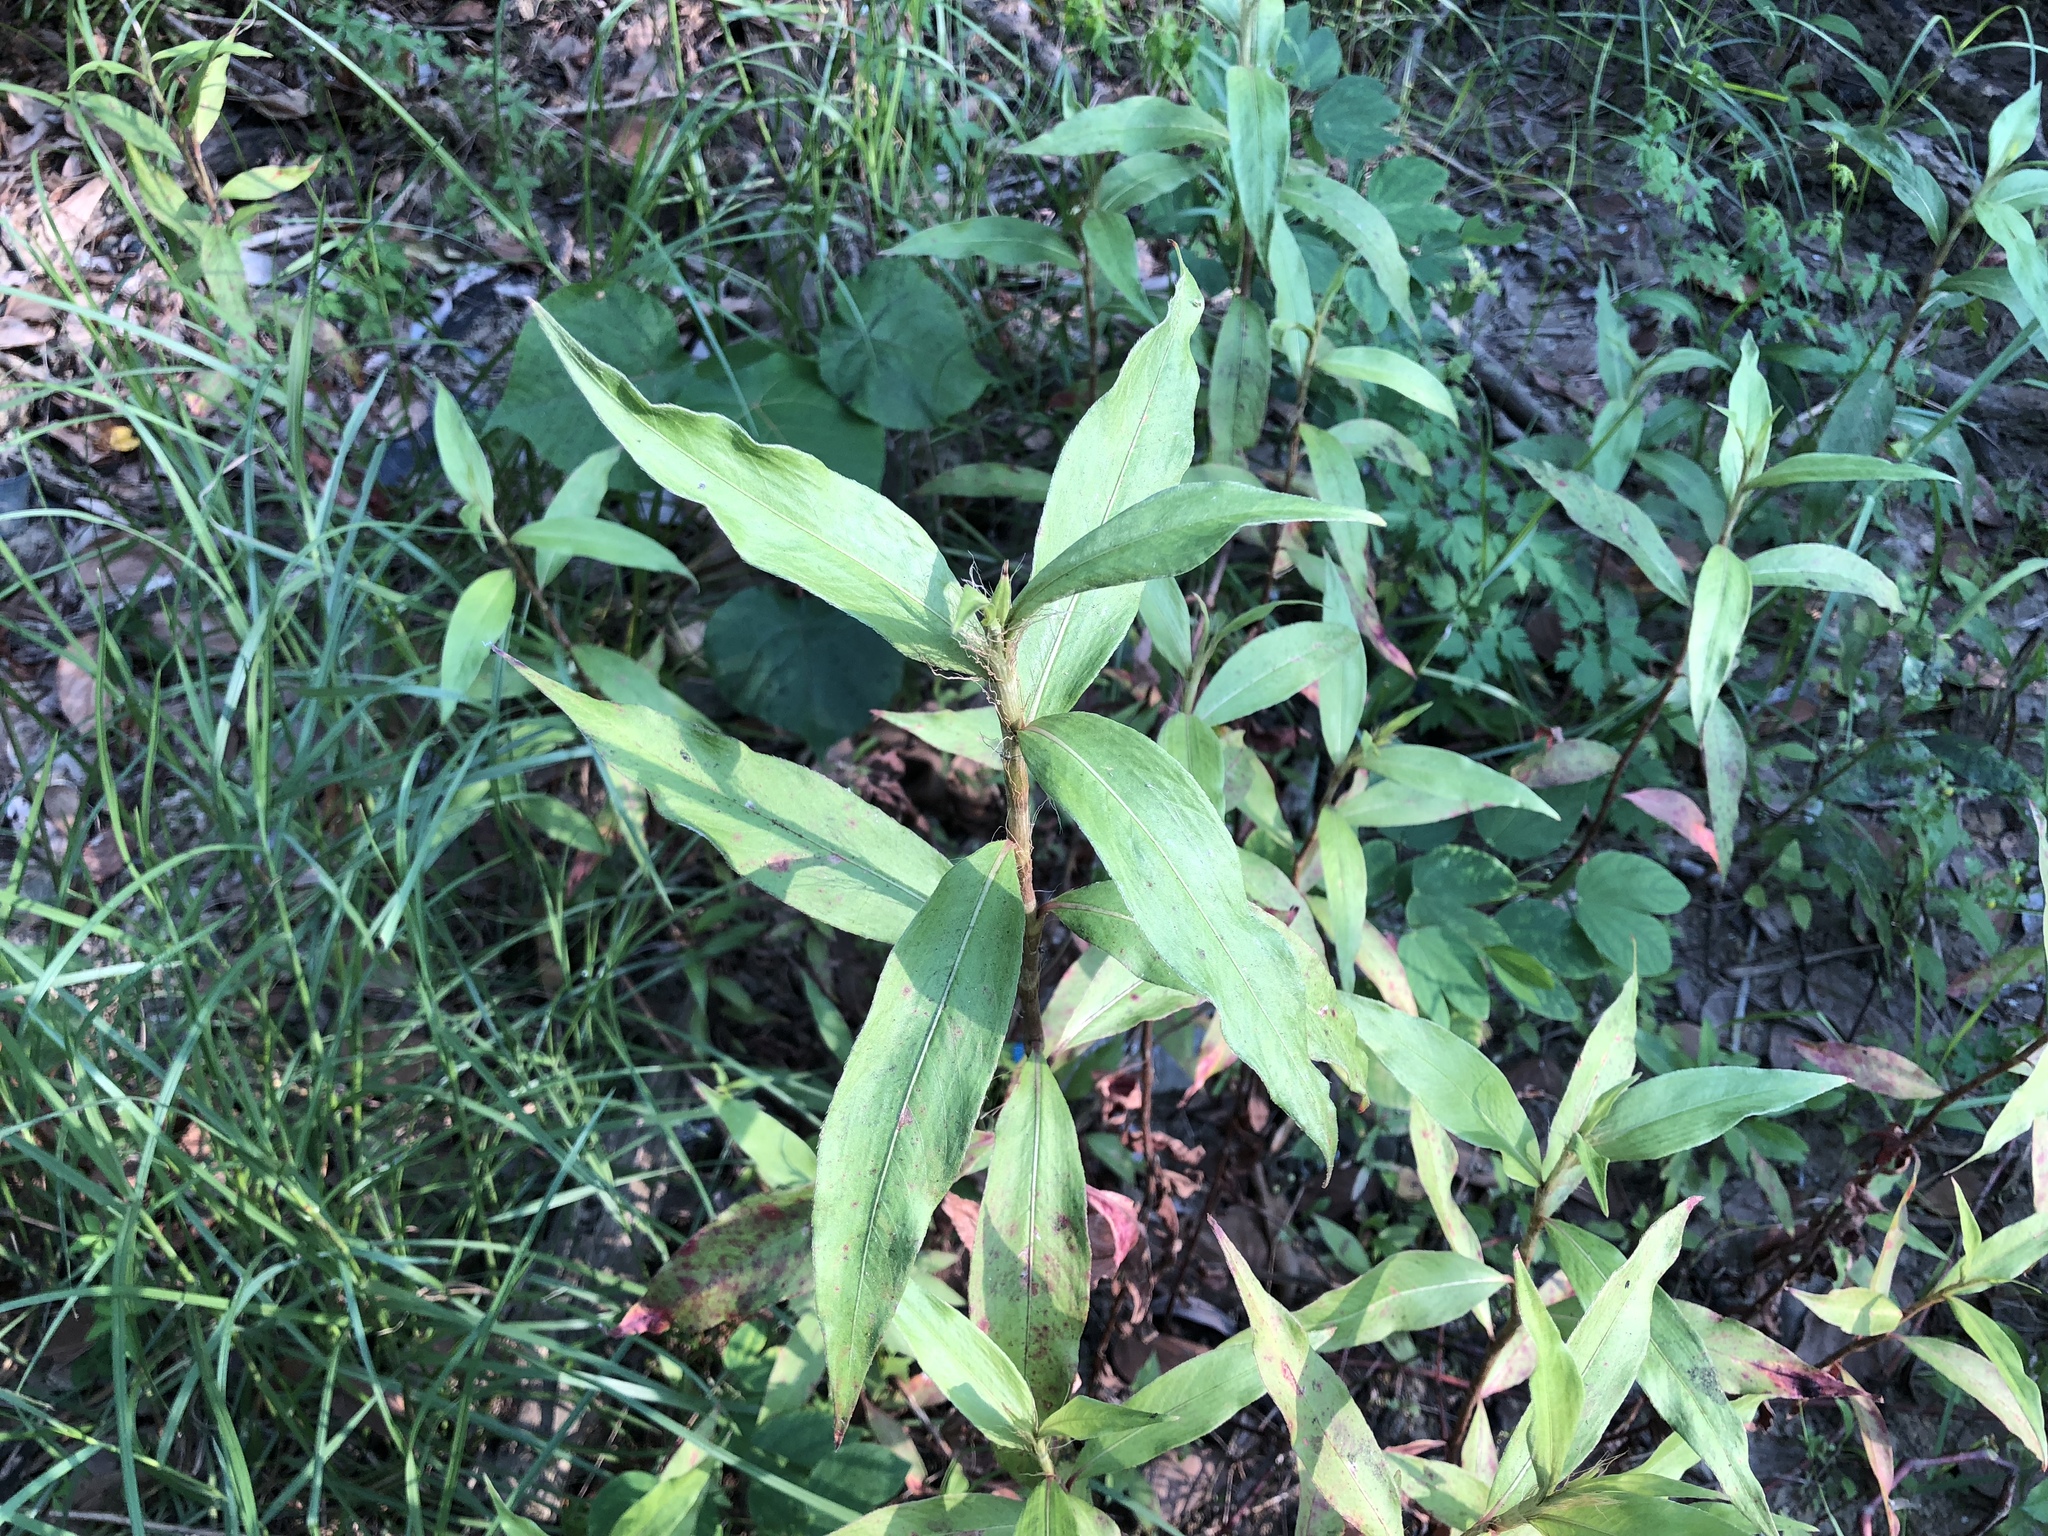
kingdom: Plantae
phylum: Tracheophyta
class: Magnoliopsida
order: Caryophyllales
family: Polygonaceae
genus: Persicaria
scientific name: Persicaria barbata
